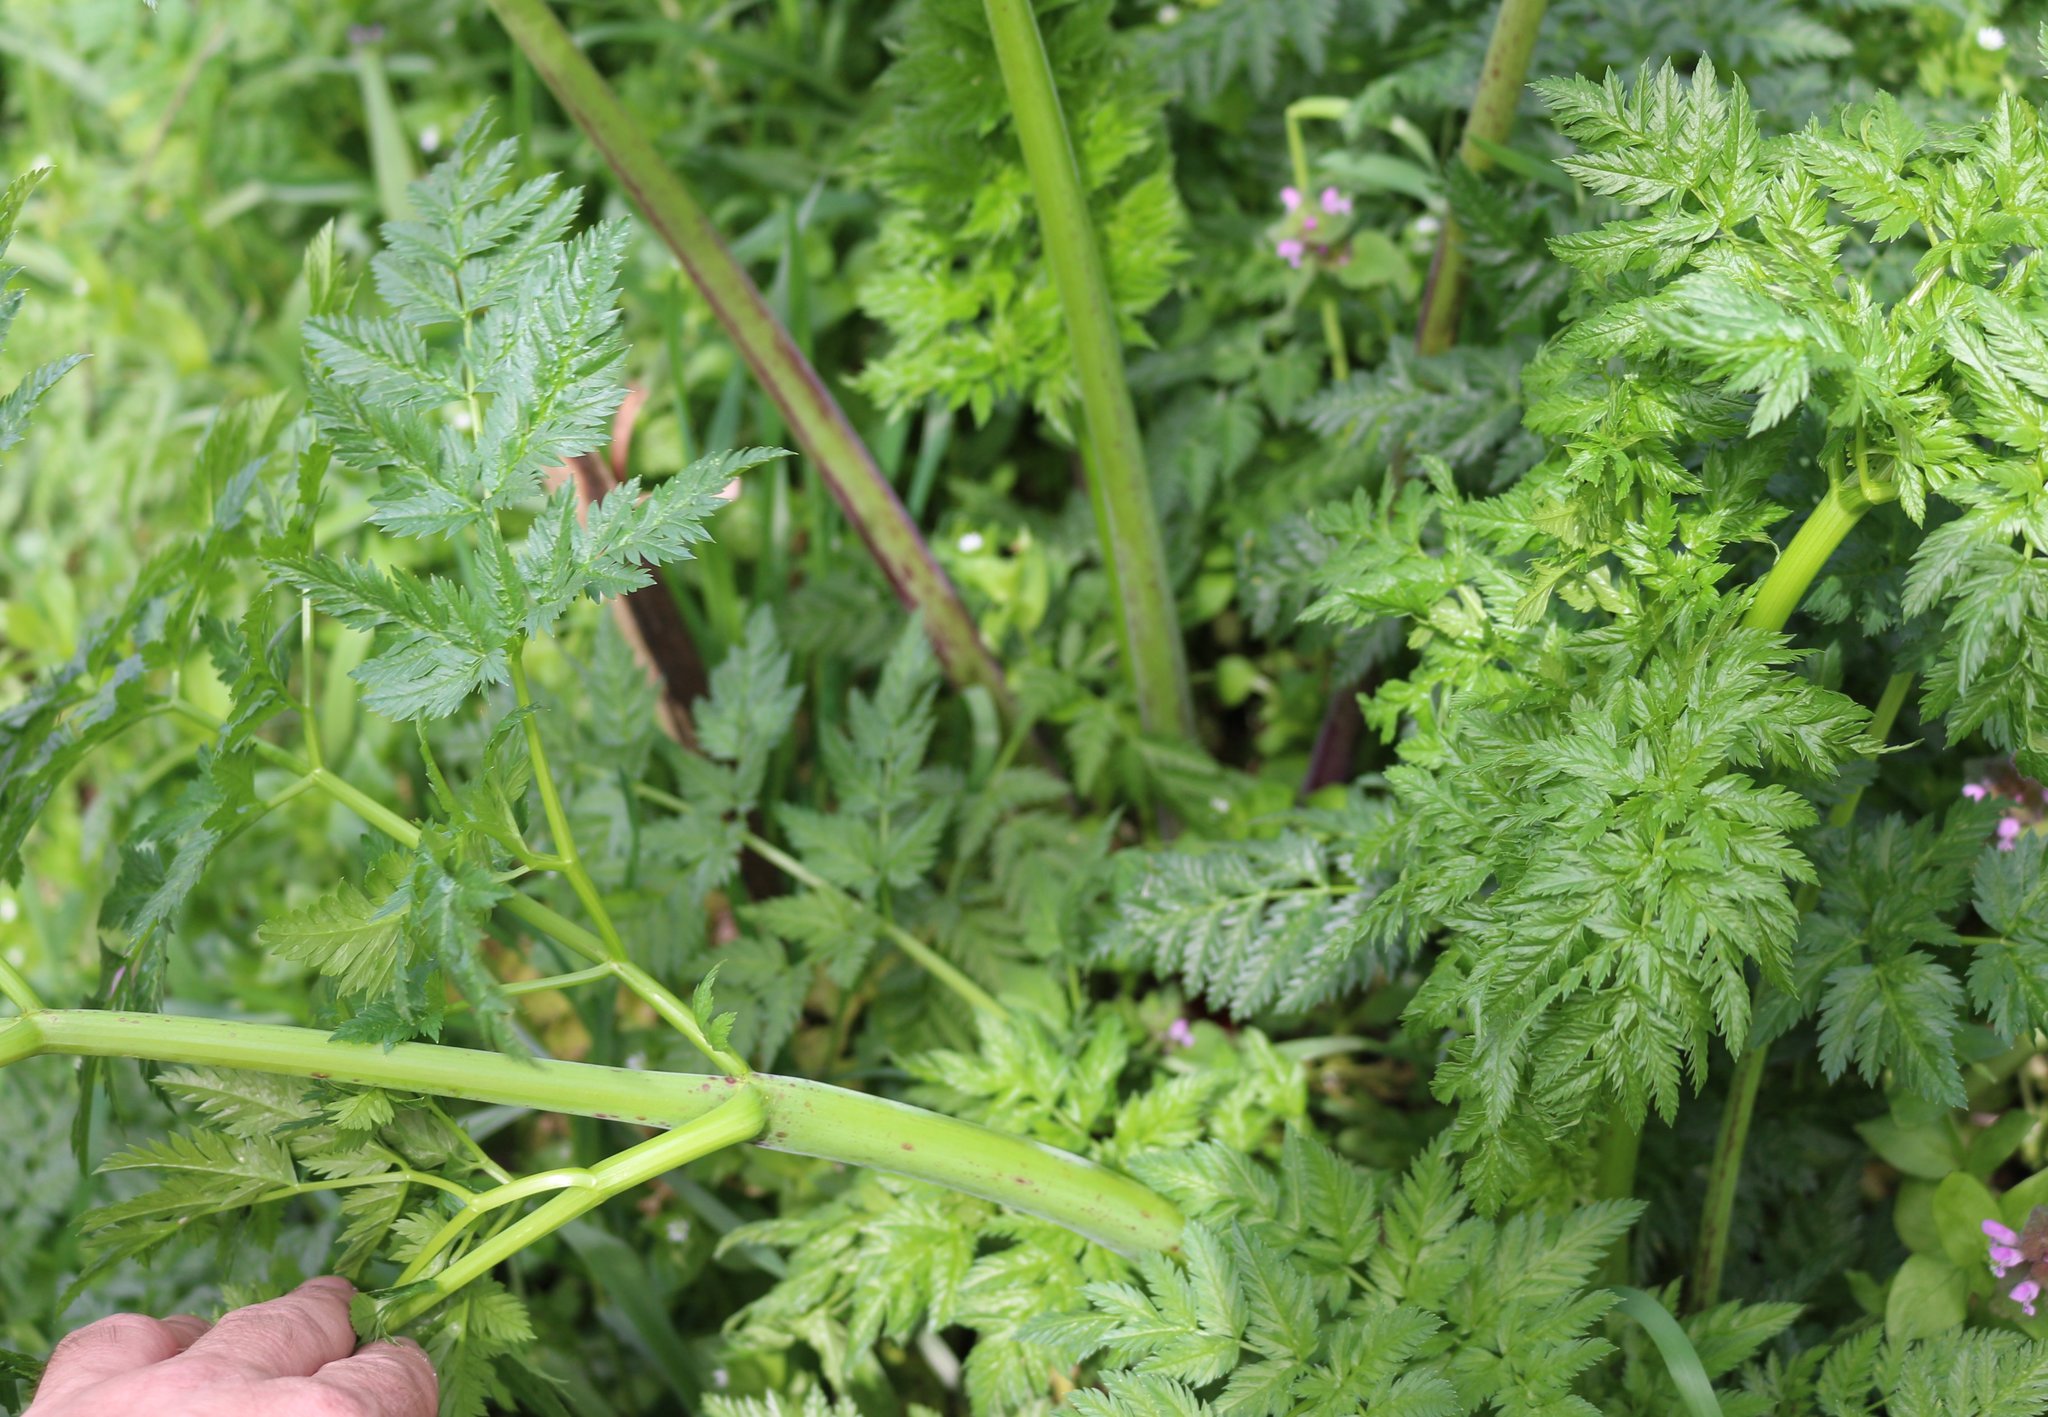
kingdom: Plantae
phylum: Tracheophyta
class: Magnoliopsida
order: Apiales
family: Apiaceae
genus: Conium
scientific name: Conium maculatum
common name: Hemlock
